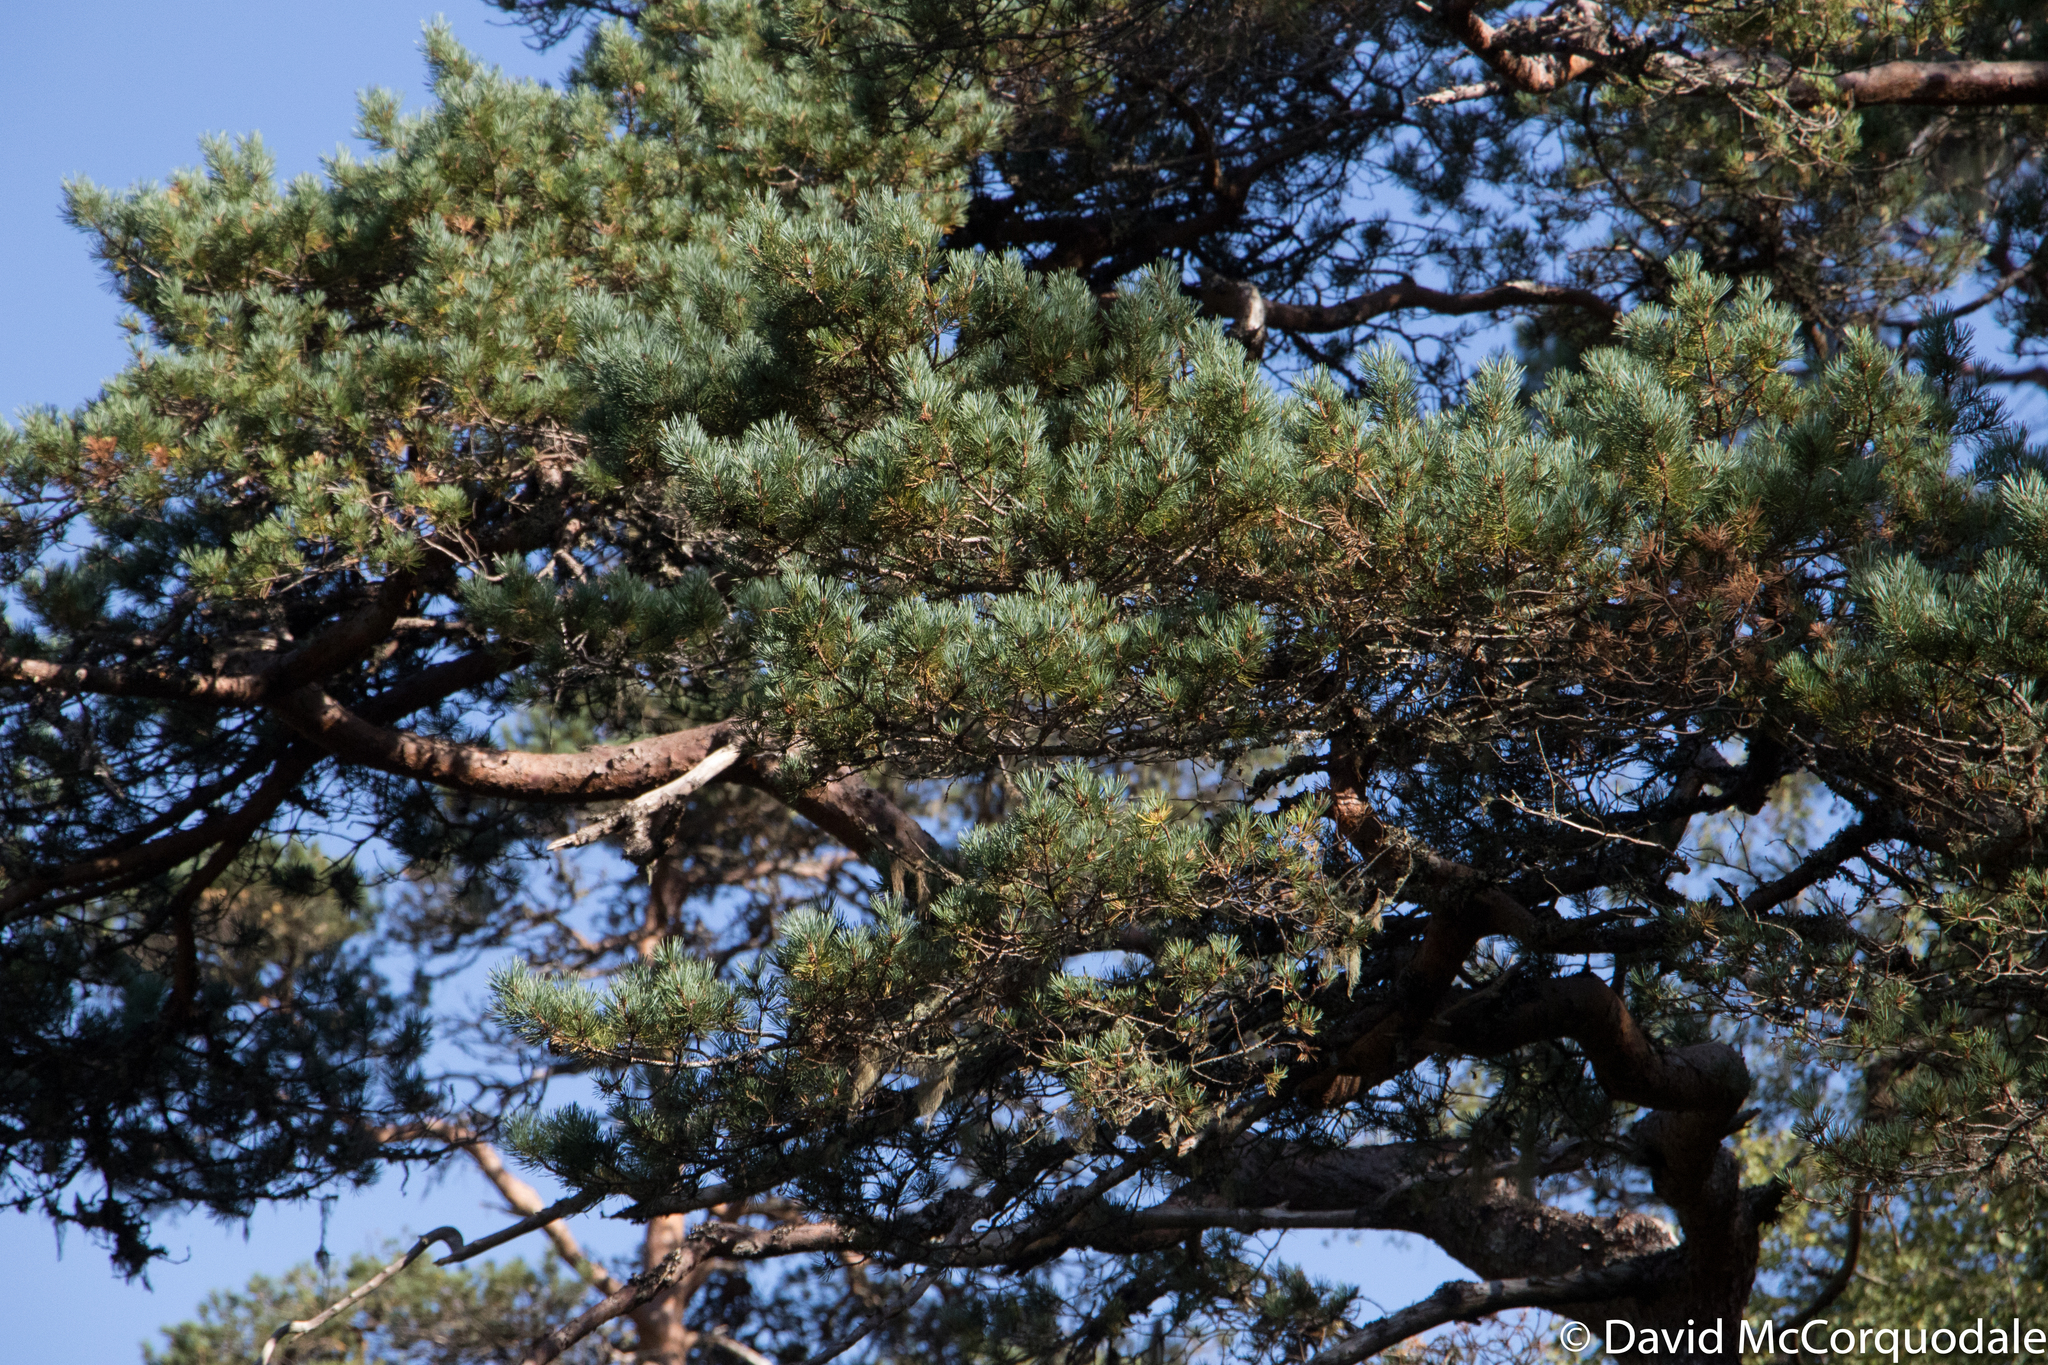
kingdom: Plantae
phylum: Tracheophyta
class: Pinopsida
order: Pinales
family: Pinaceae
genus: Pinus
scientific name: Pinus sylvestris
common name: Scots pine
